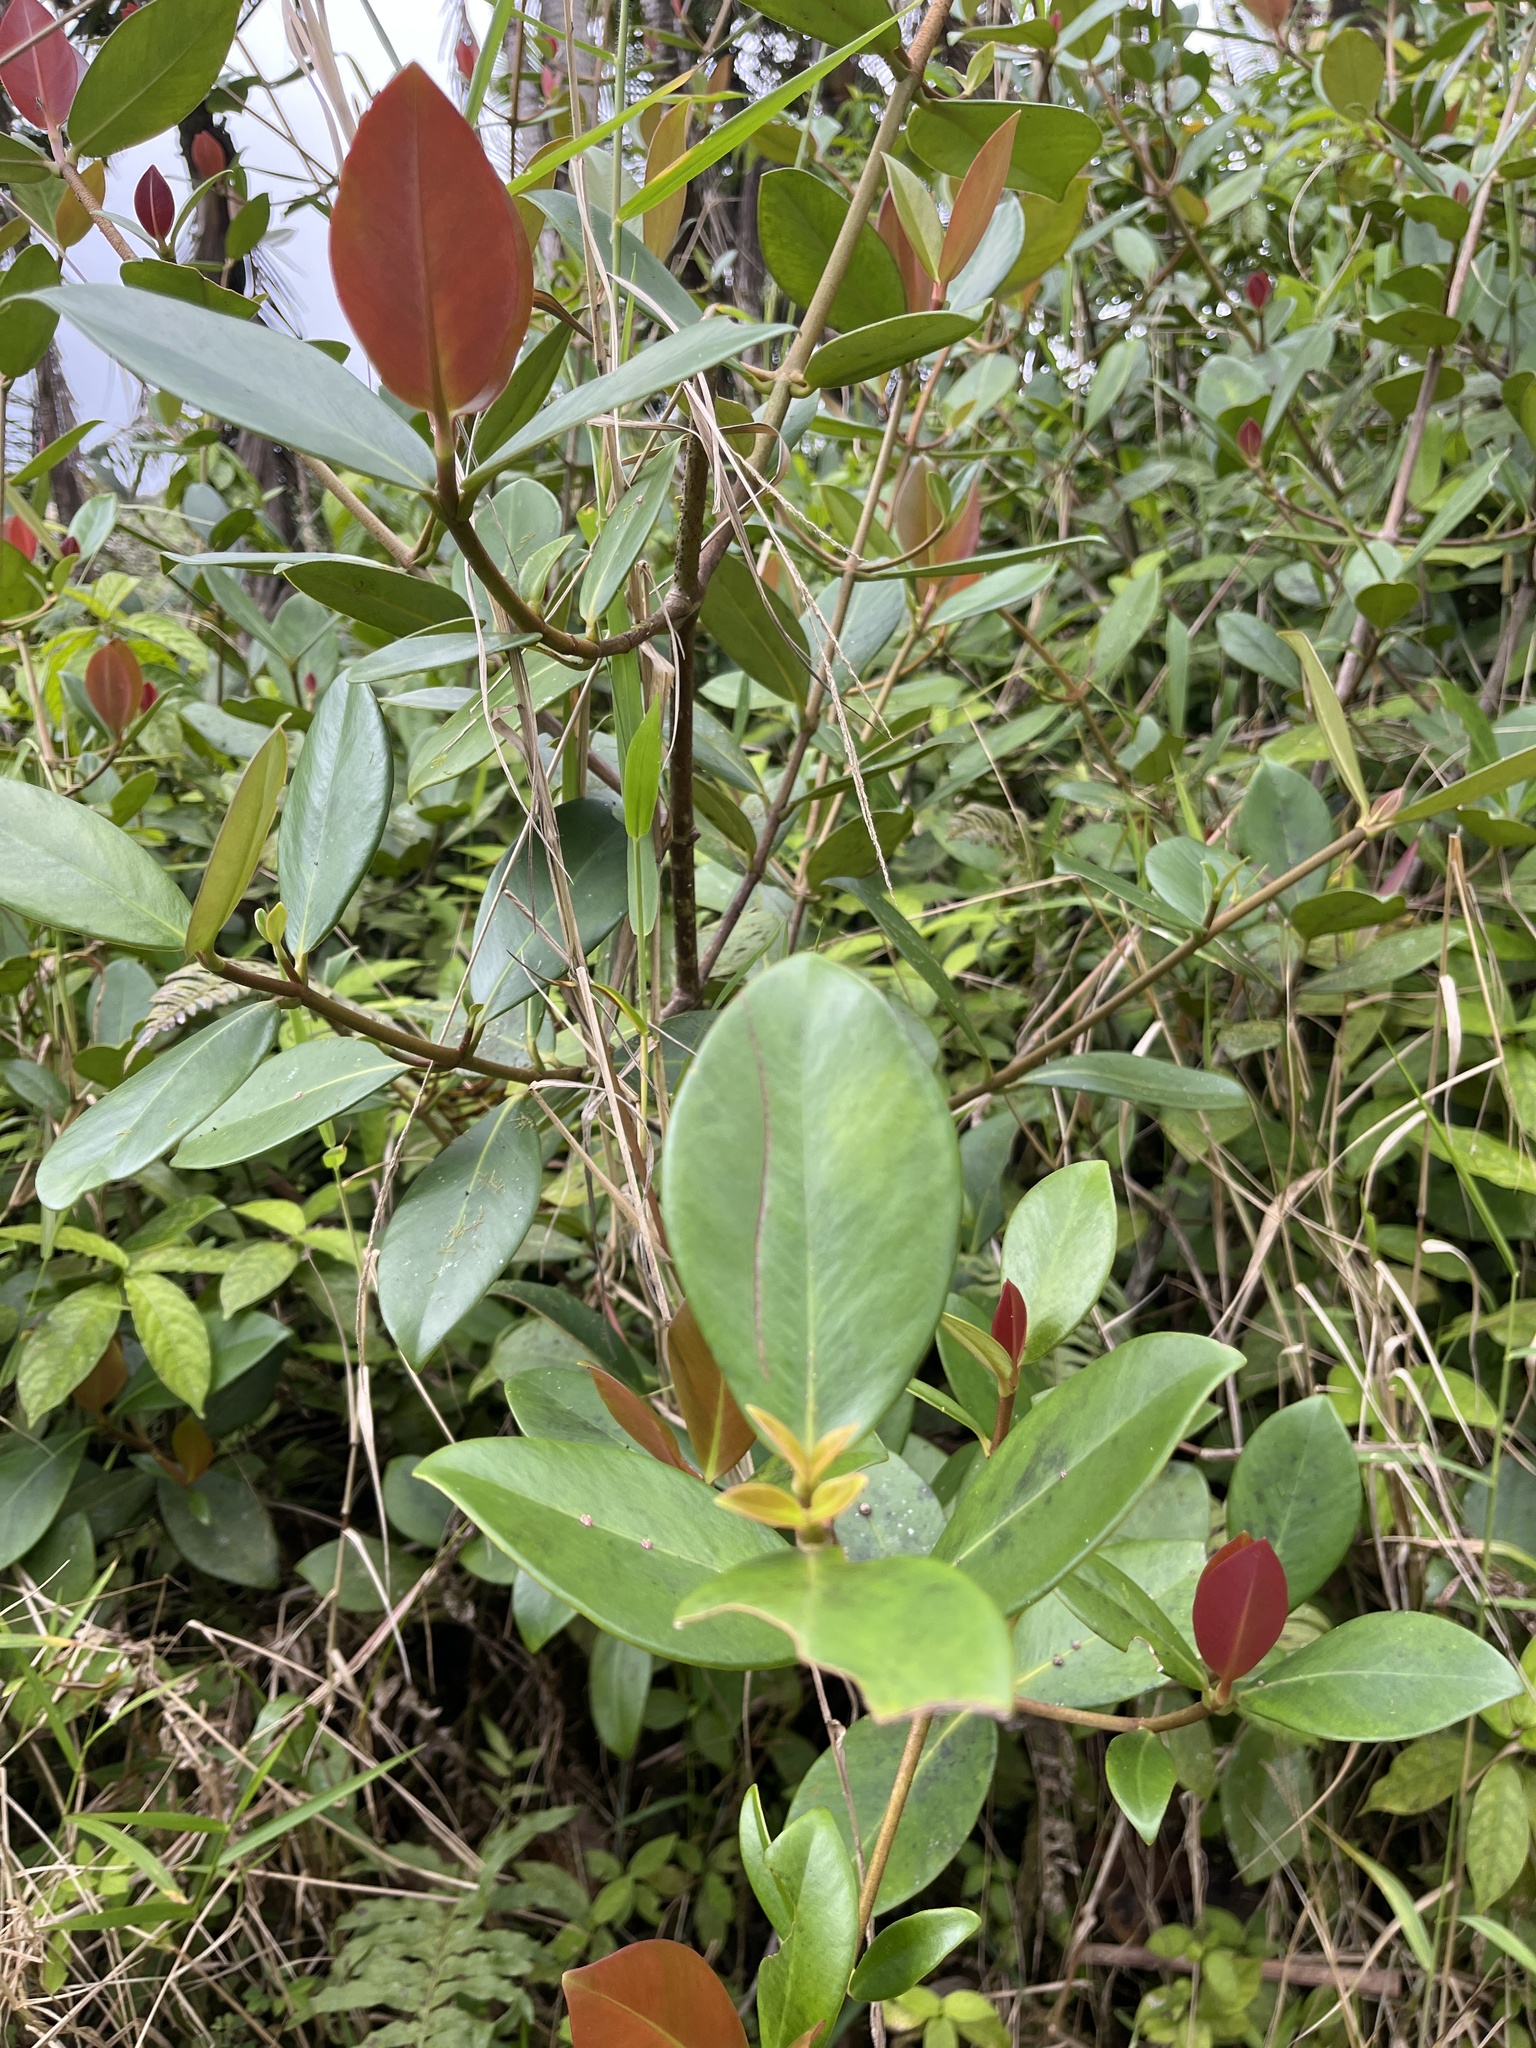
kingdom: Plantae
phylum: Tracheophyta
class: Magnoliopsida
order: Malpighiales
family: Clusiaceae
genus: Clusia
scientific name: Clusia gundlachii
